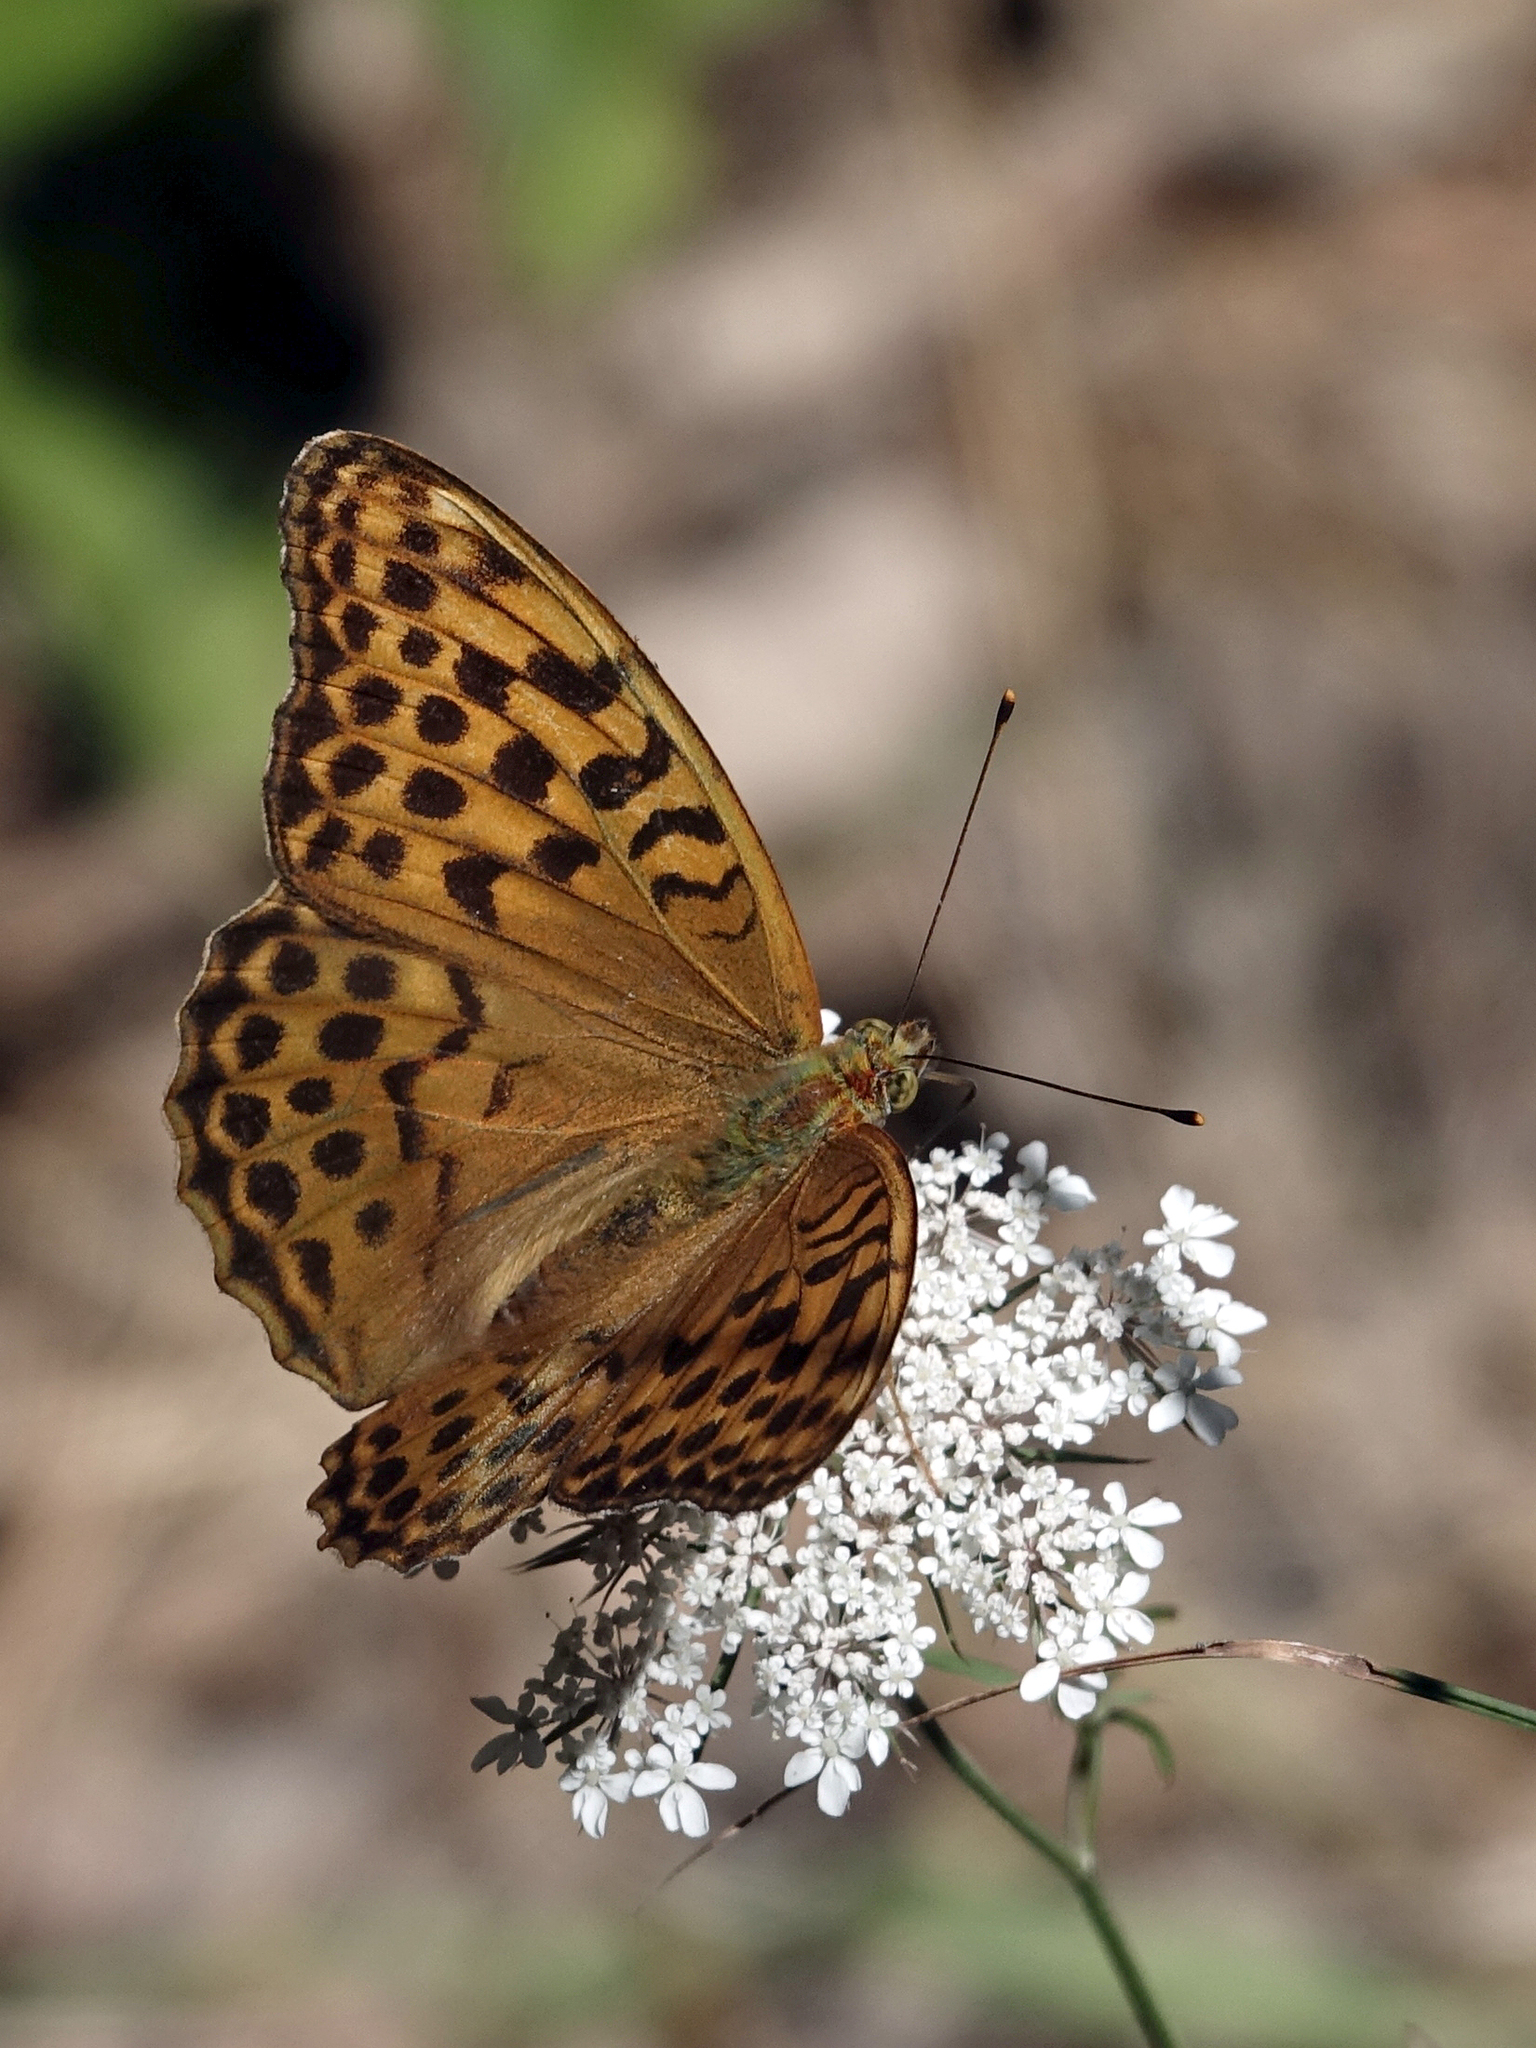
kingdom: Animalia
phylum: Arthropoda
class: Insecta
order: Lepidoptera
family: Nymphalidae
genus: Argynnis
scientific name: Argynnis paphia
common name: Silver-washed fritillary
